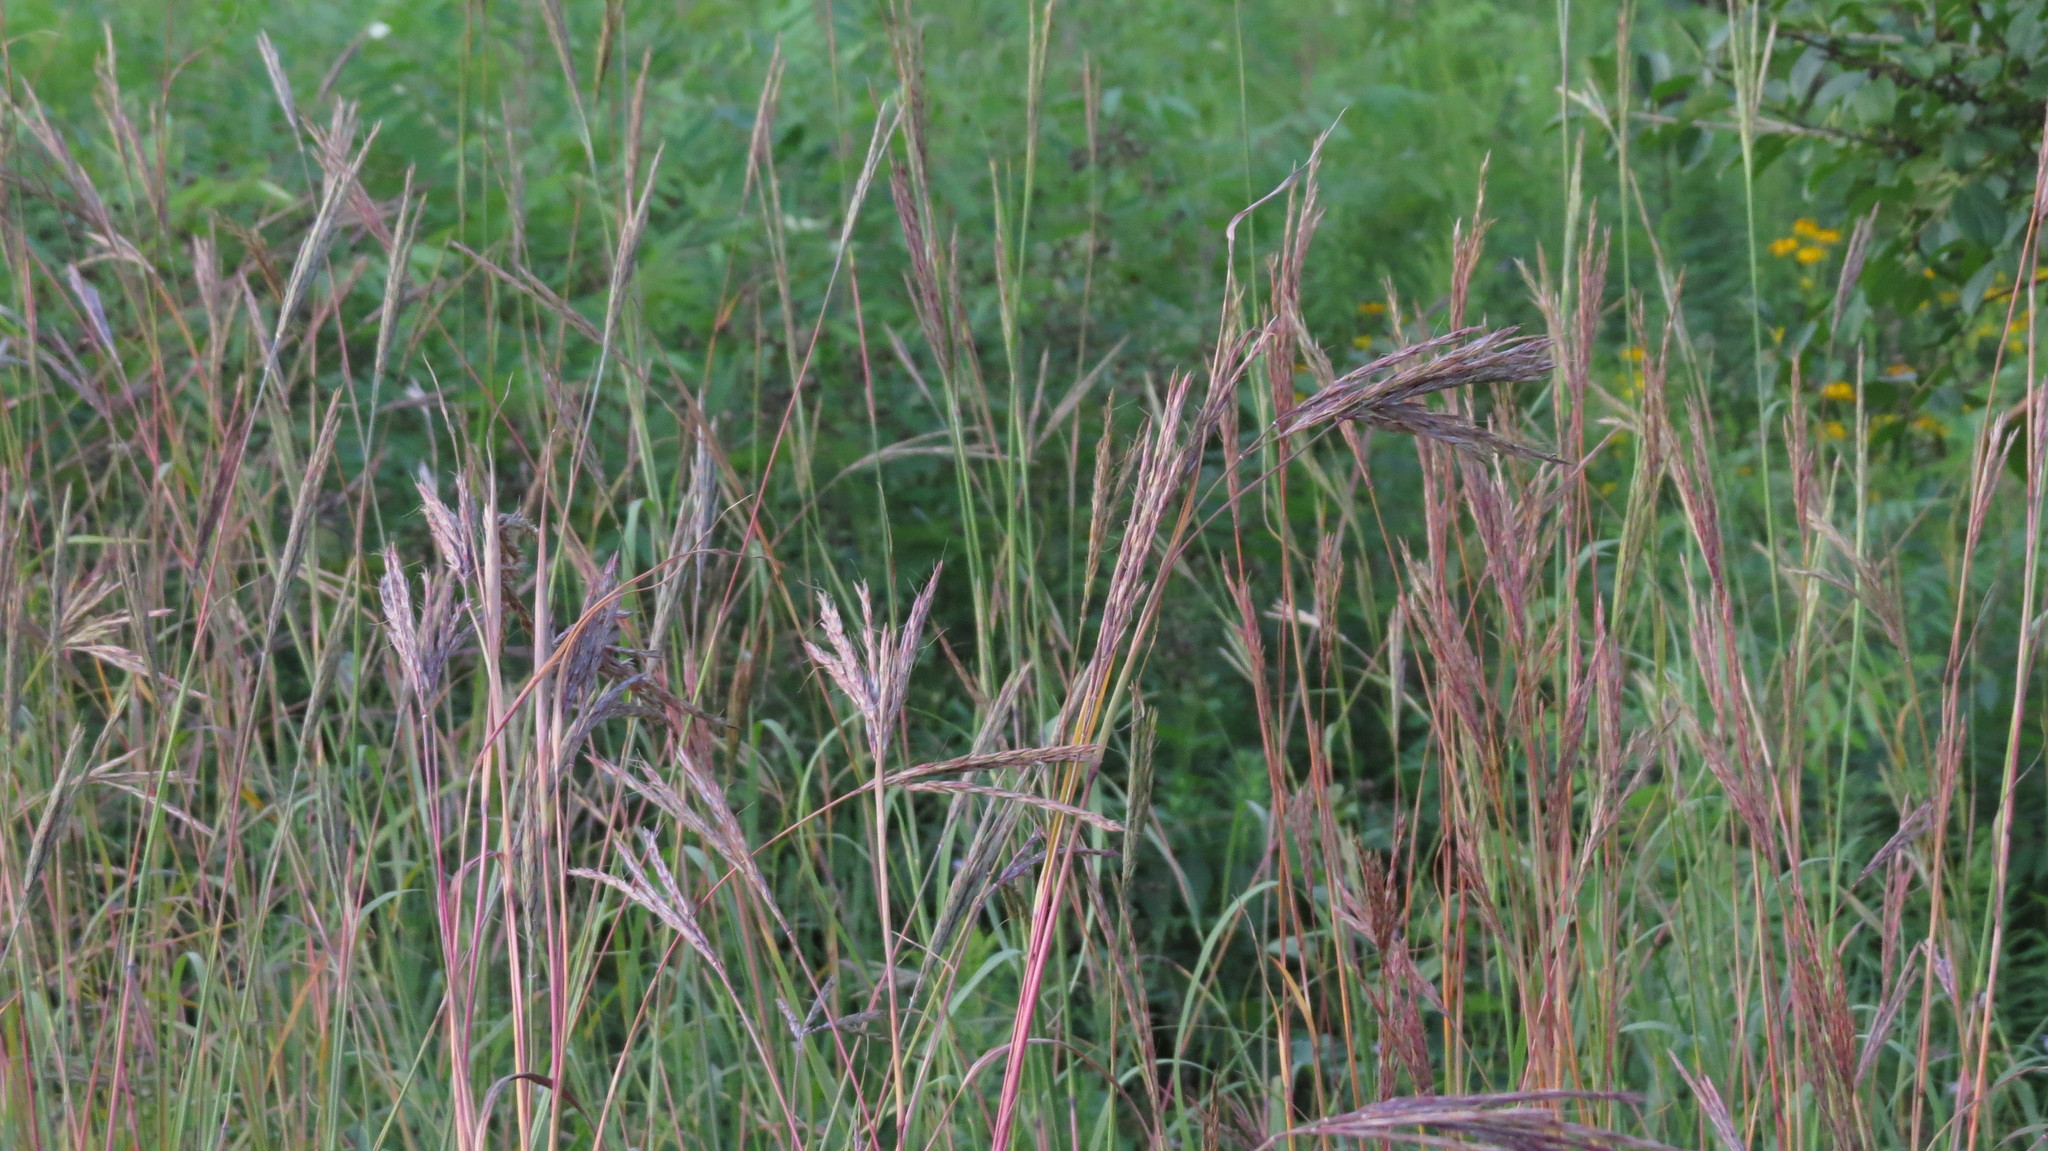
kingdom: Plantae
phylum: Tracheophyta
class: Liliopsida
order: Poales
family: Poaceae
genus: Andropogon
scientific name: Andropogon gerardi
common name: Big bluestem
